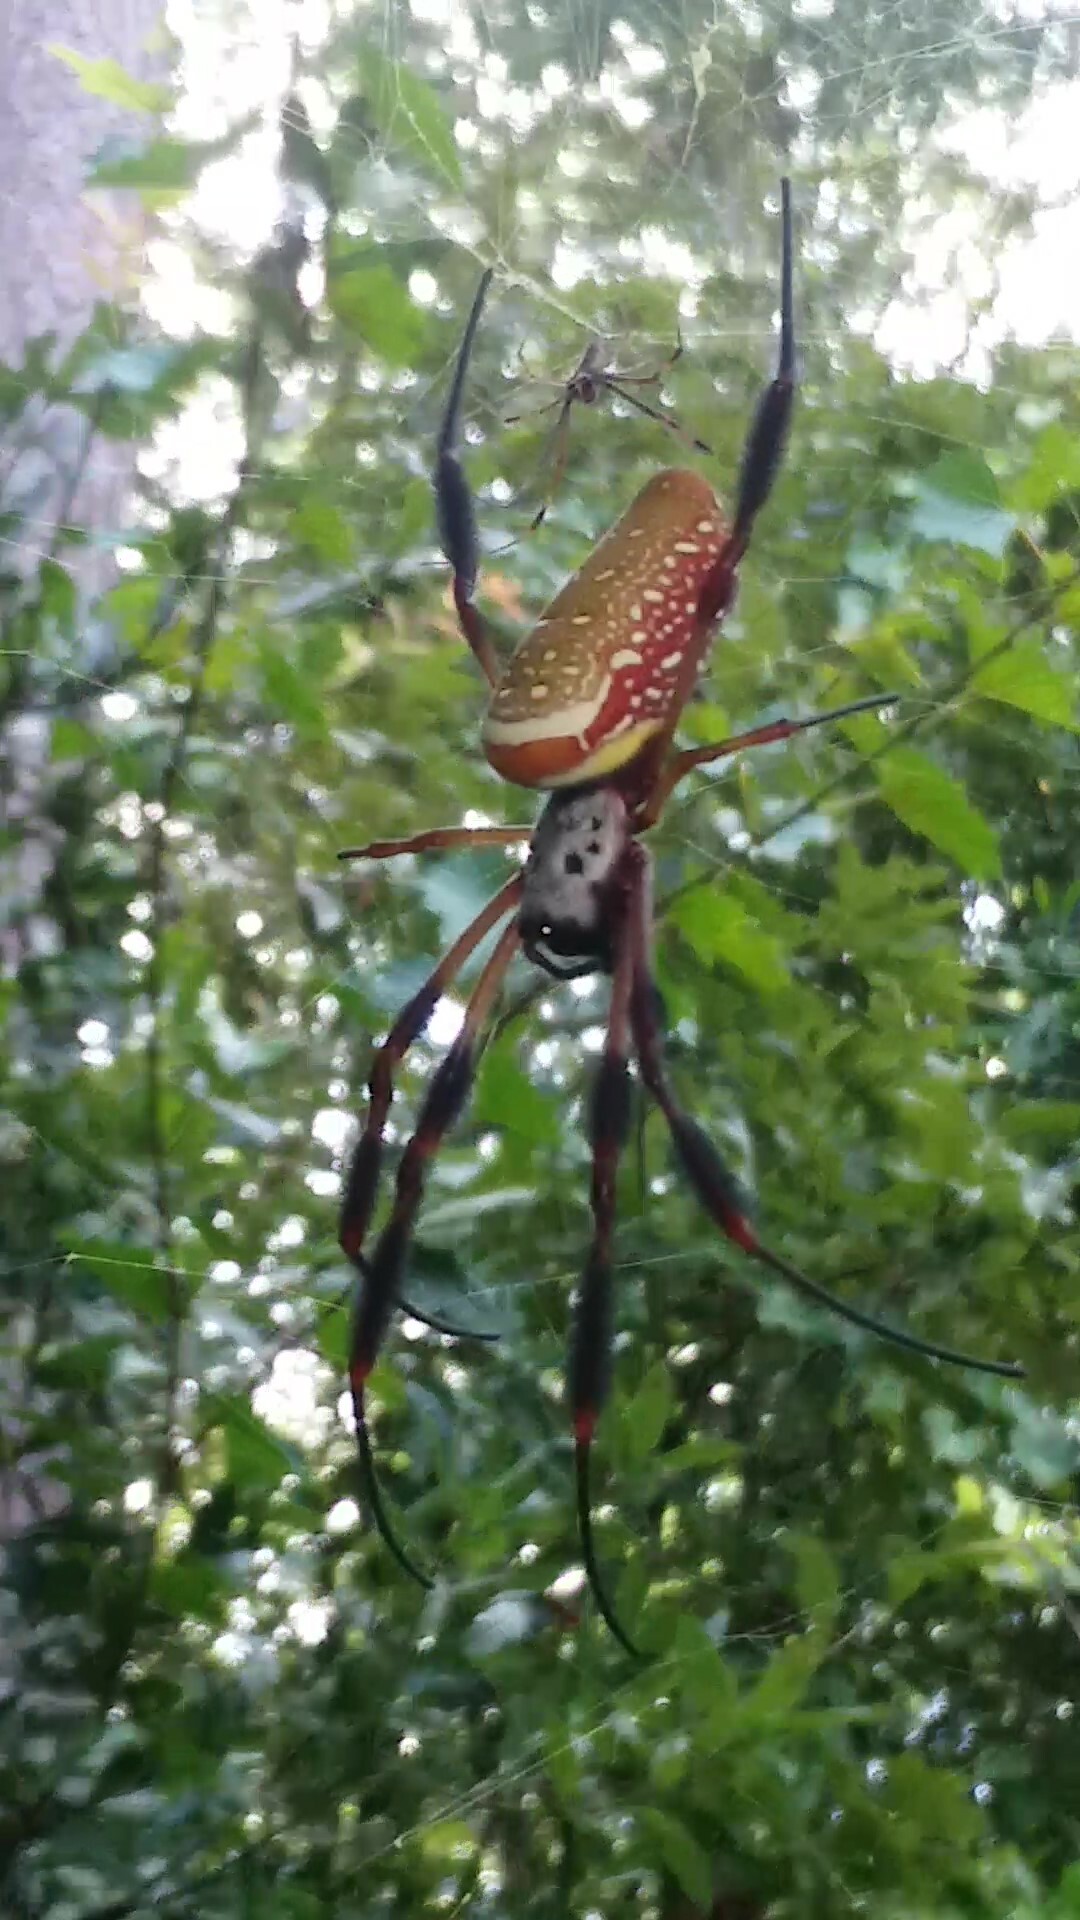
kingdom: Animalia
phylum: Arthropoda
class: Arachnida
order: Araneae
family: Araneidae
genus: Trichonephila
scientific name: Trichonephila clavipes
